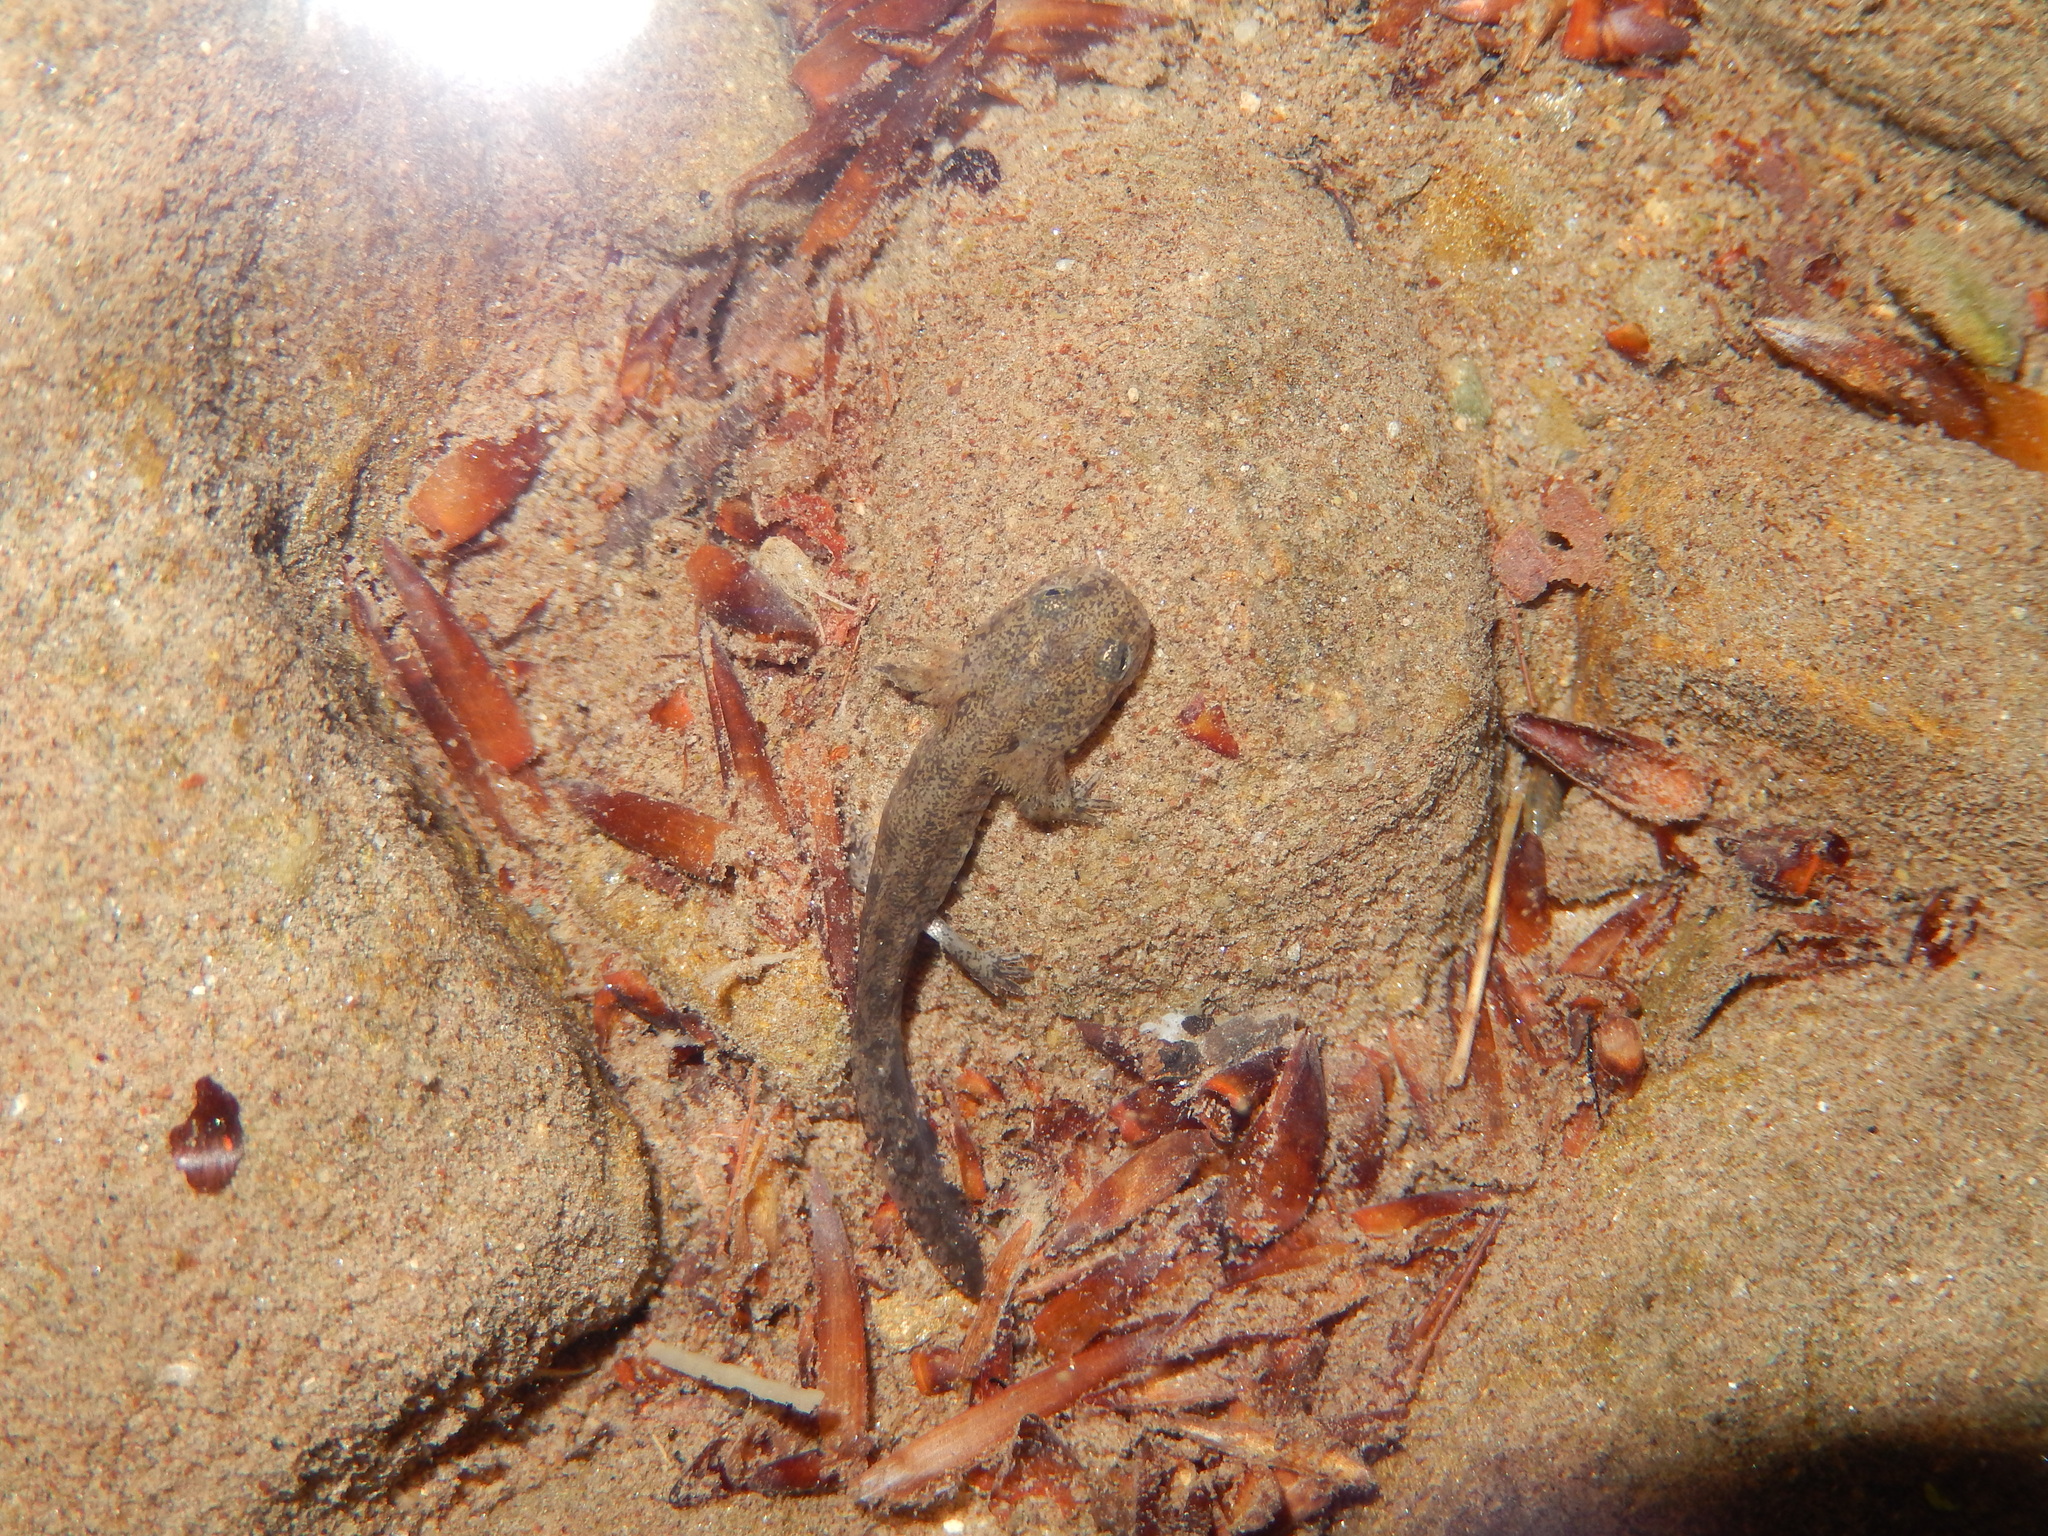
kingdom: Animalia
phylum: Chordata
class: Amphibia
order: Caudata
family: Salamandridae
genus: Salamandra
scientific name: Salamandra salamandra
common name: Fire salamander
